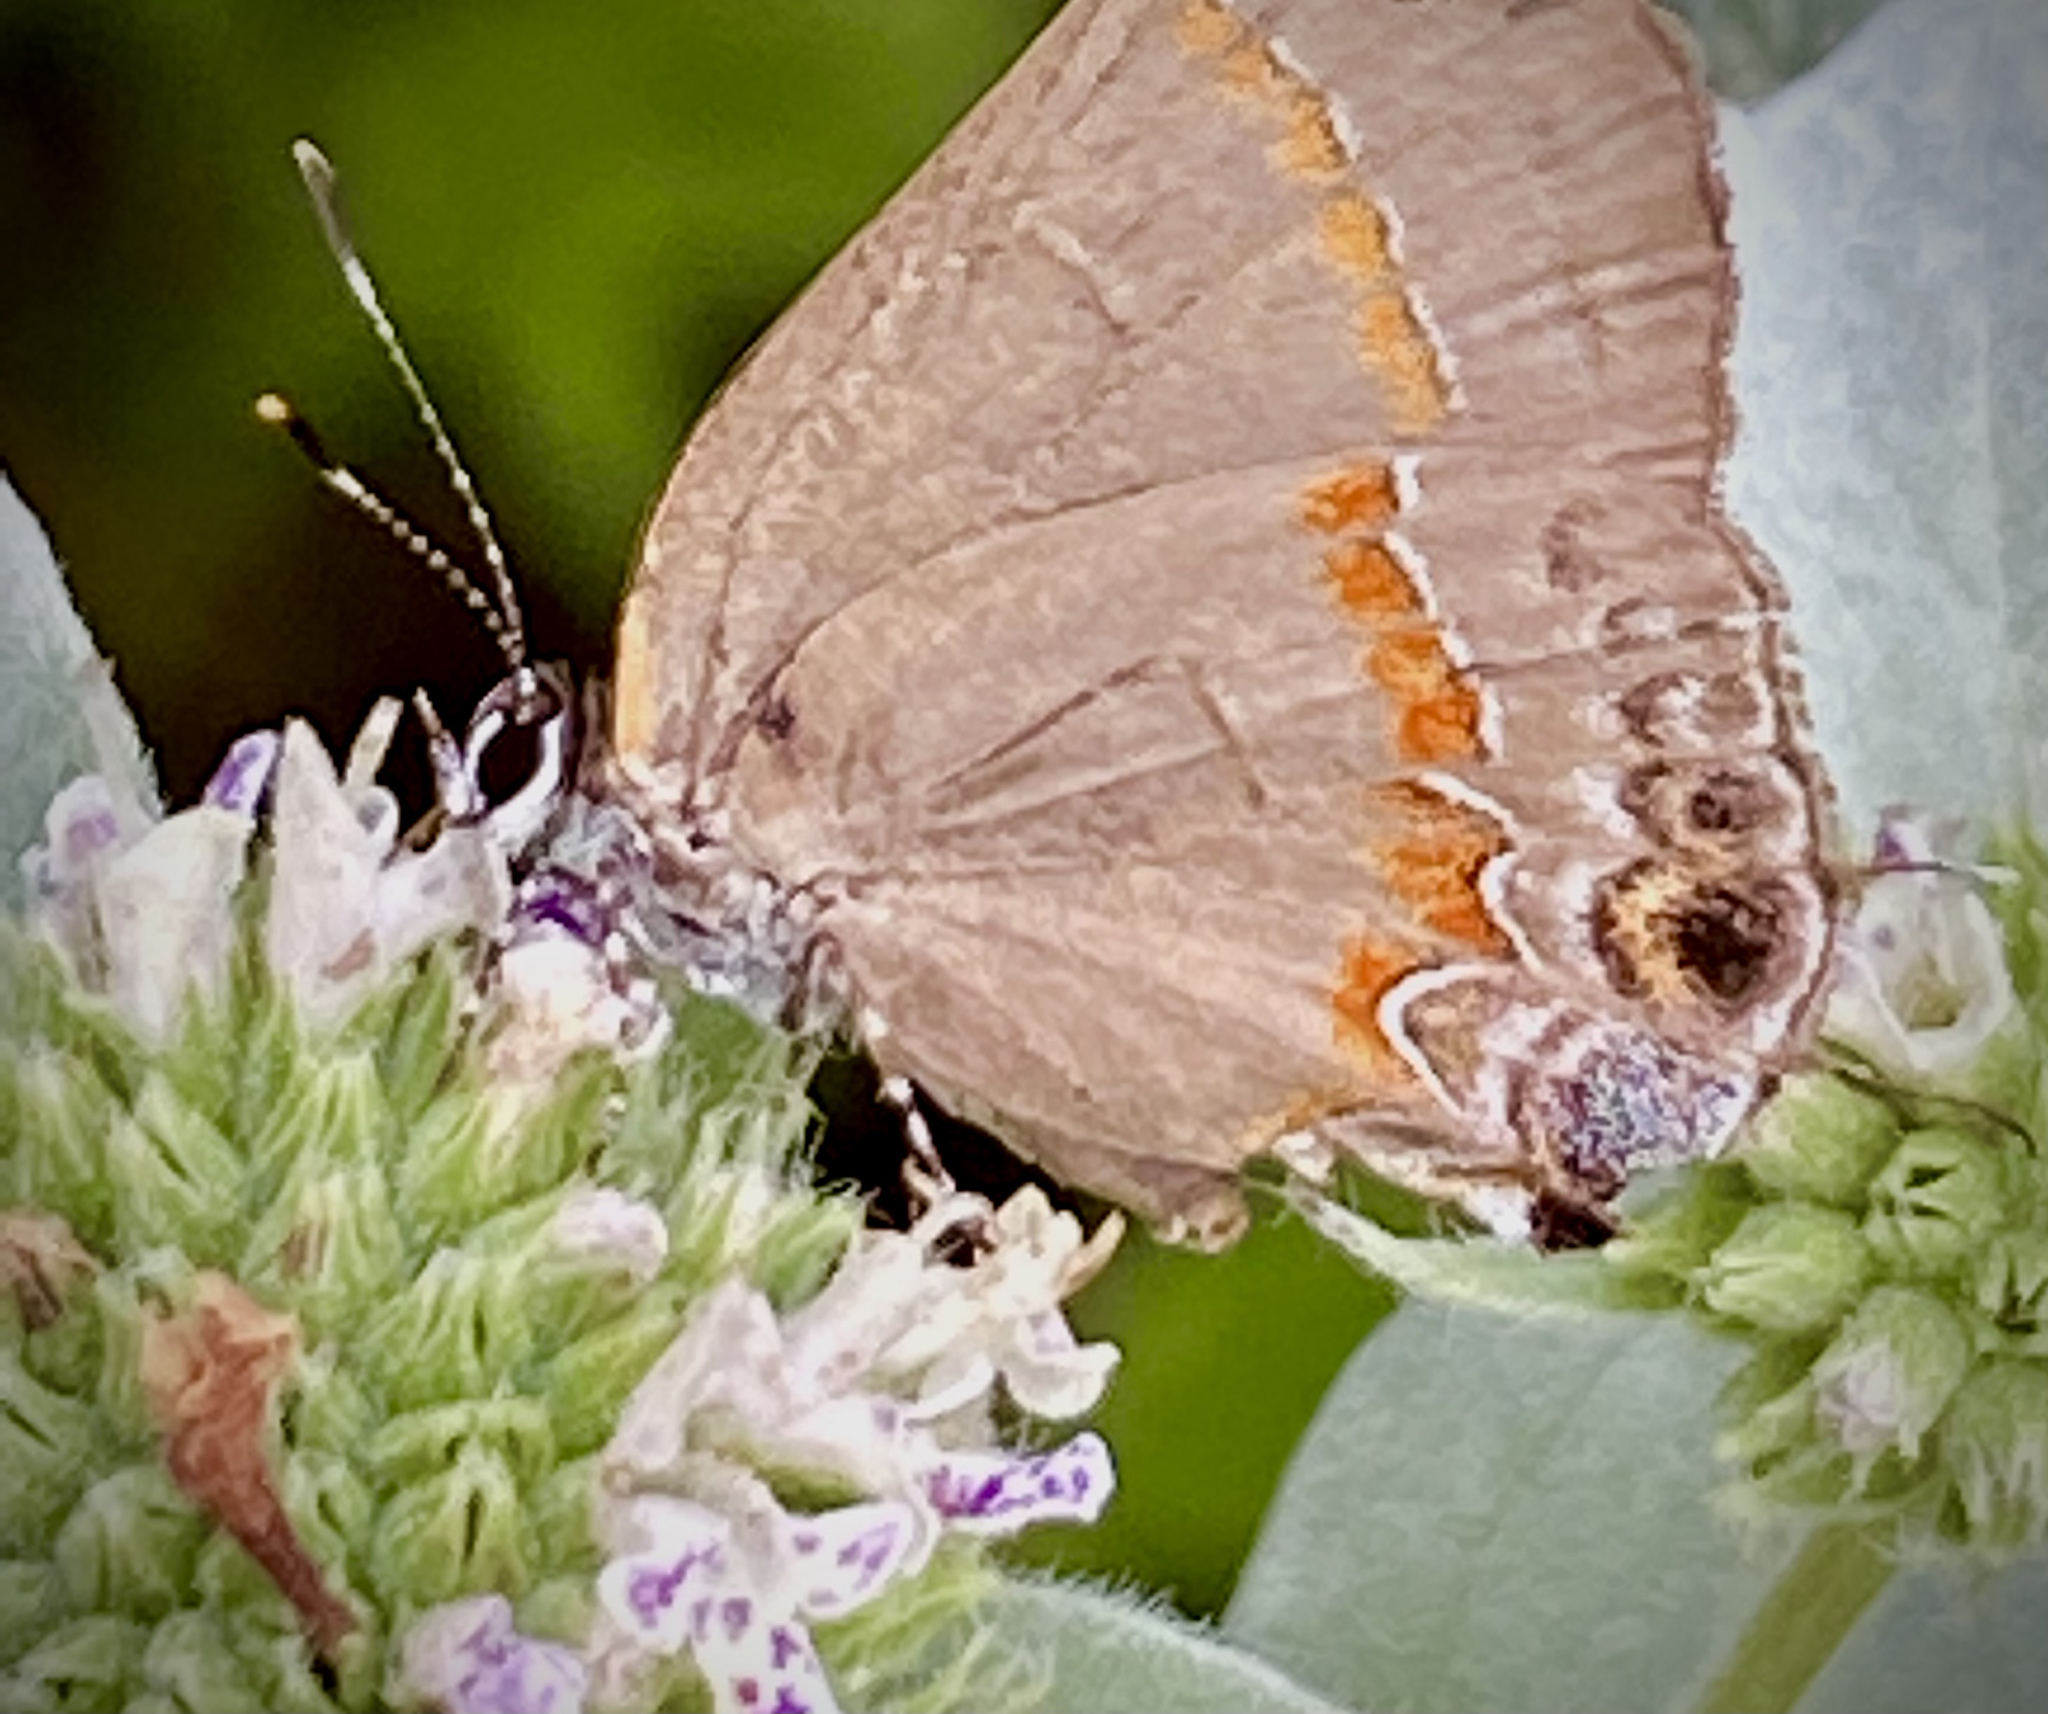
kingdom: Animalia
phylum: Arthropoda
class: Insecta
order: Lepidoptera
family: Lycaenidae
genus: Calycopis
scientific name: Calycopis cecrops
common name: Red-banded hairstreak
